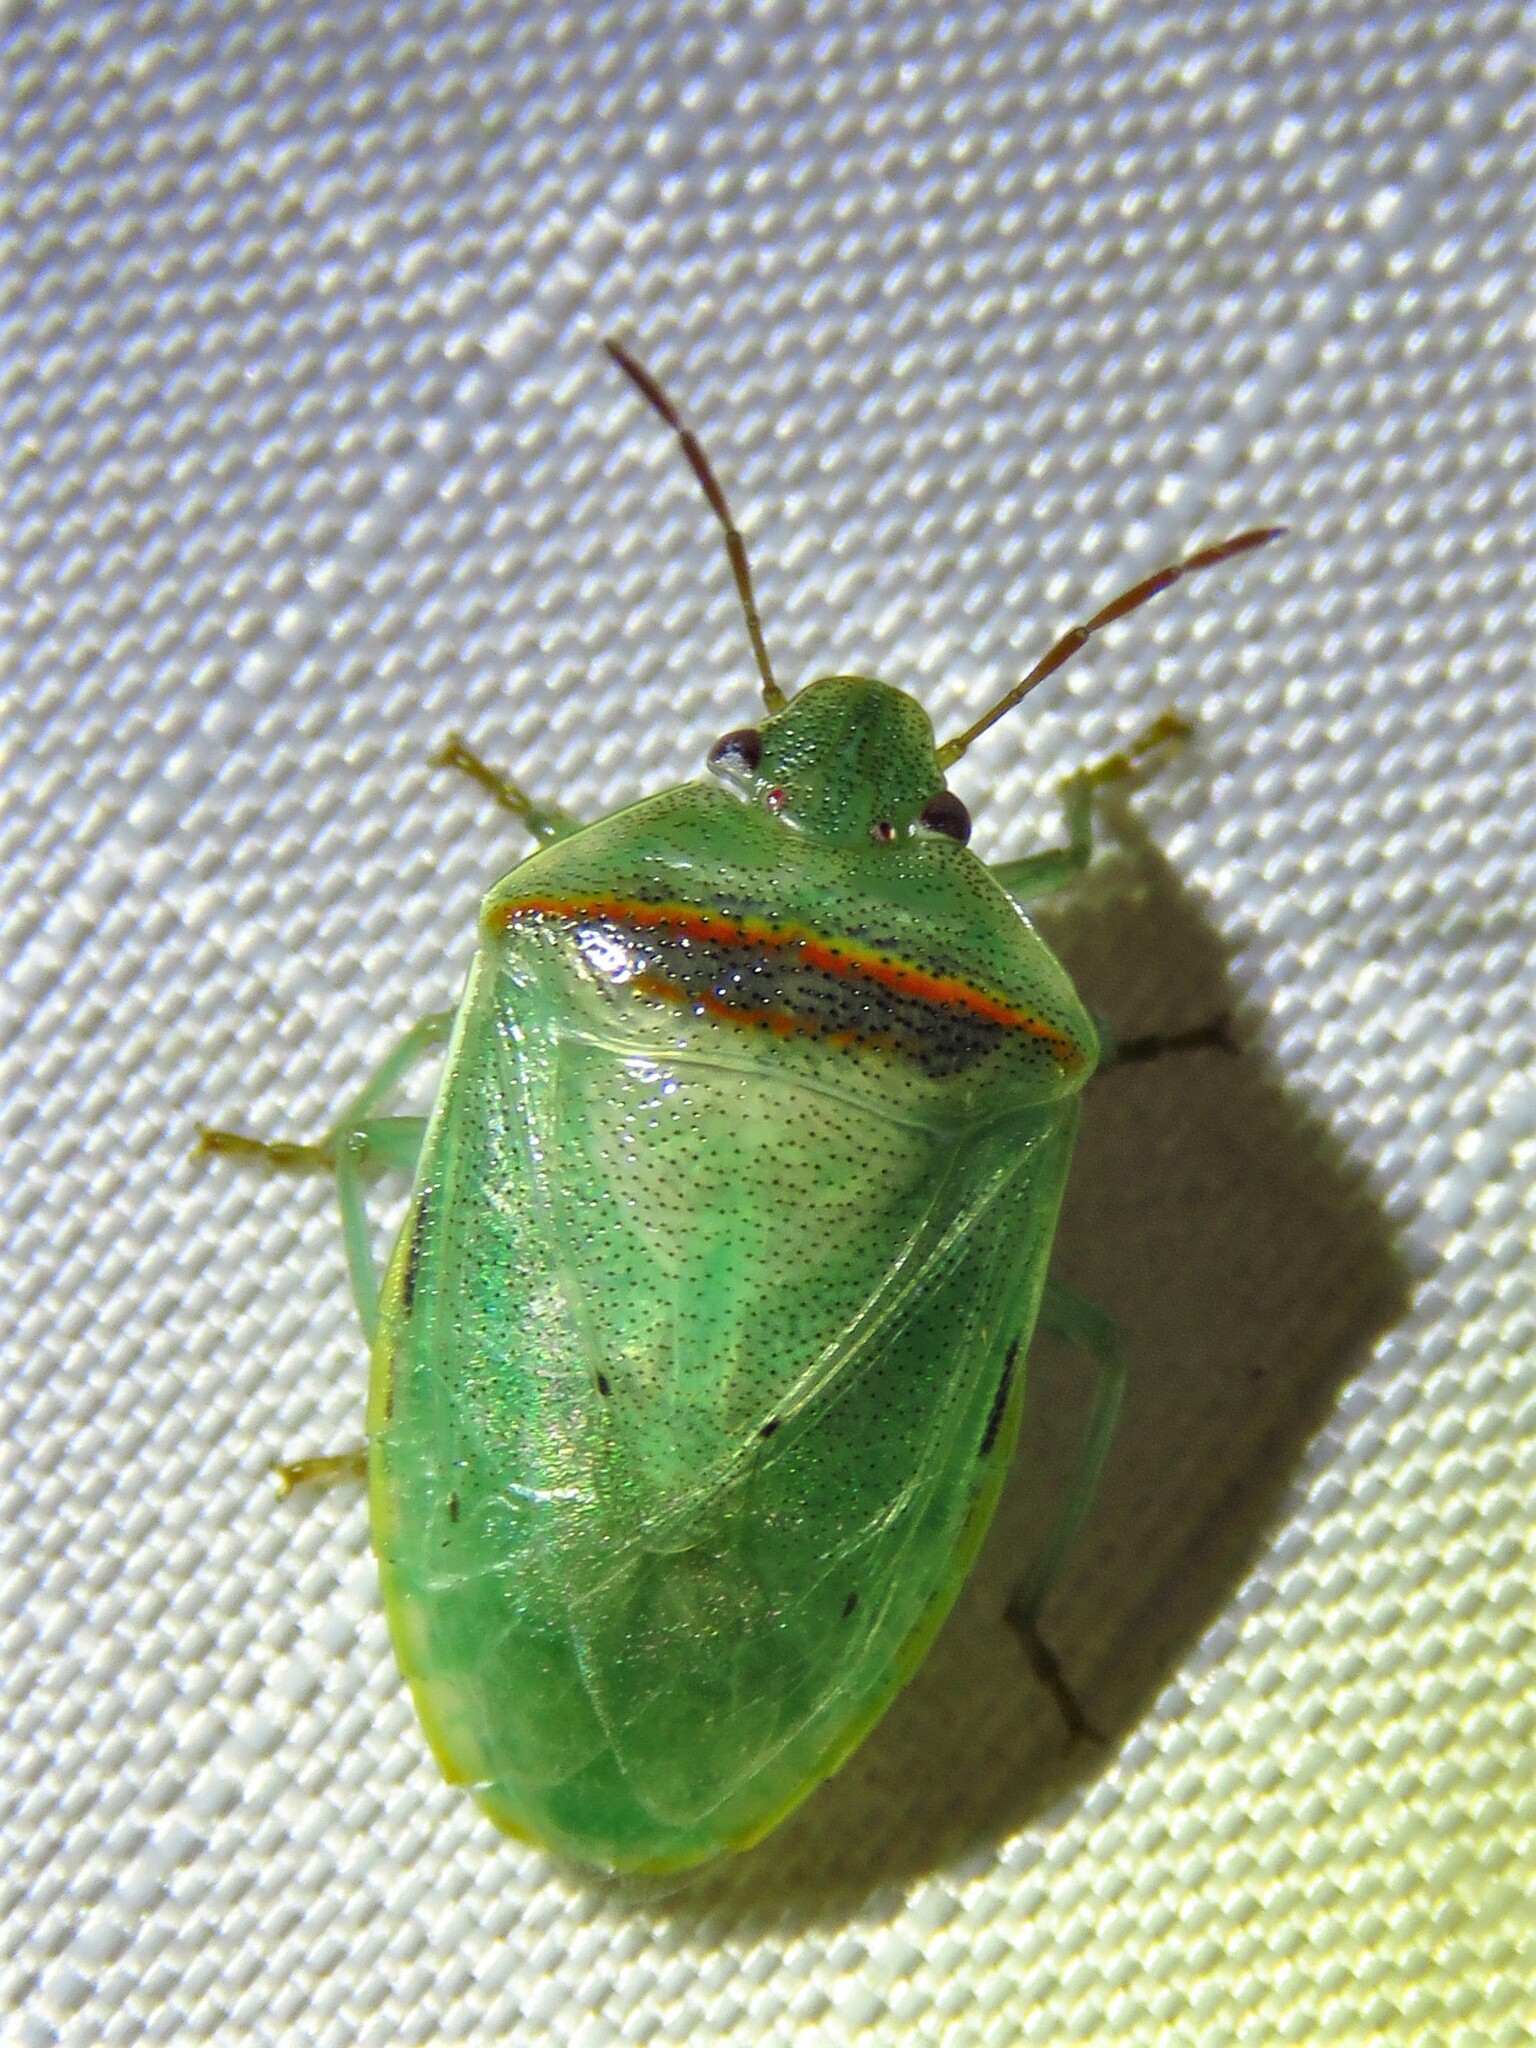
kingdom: Animalia
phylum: Arthropoda
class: Insecta
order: Hemiptera
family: Pentatomidae
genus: Piezodorus
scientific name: Piezodorus guildinii
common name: Redbanded stink bug
